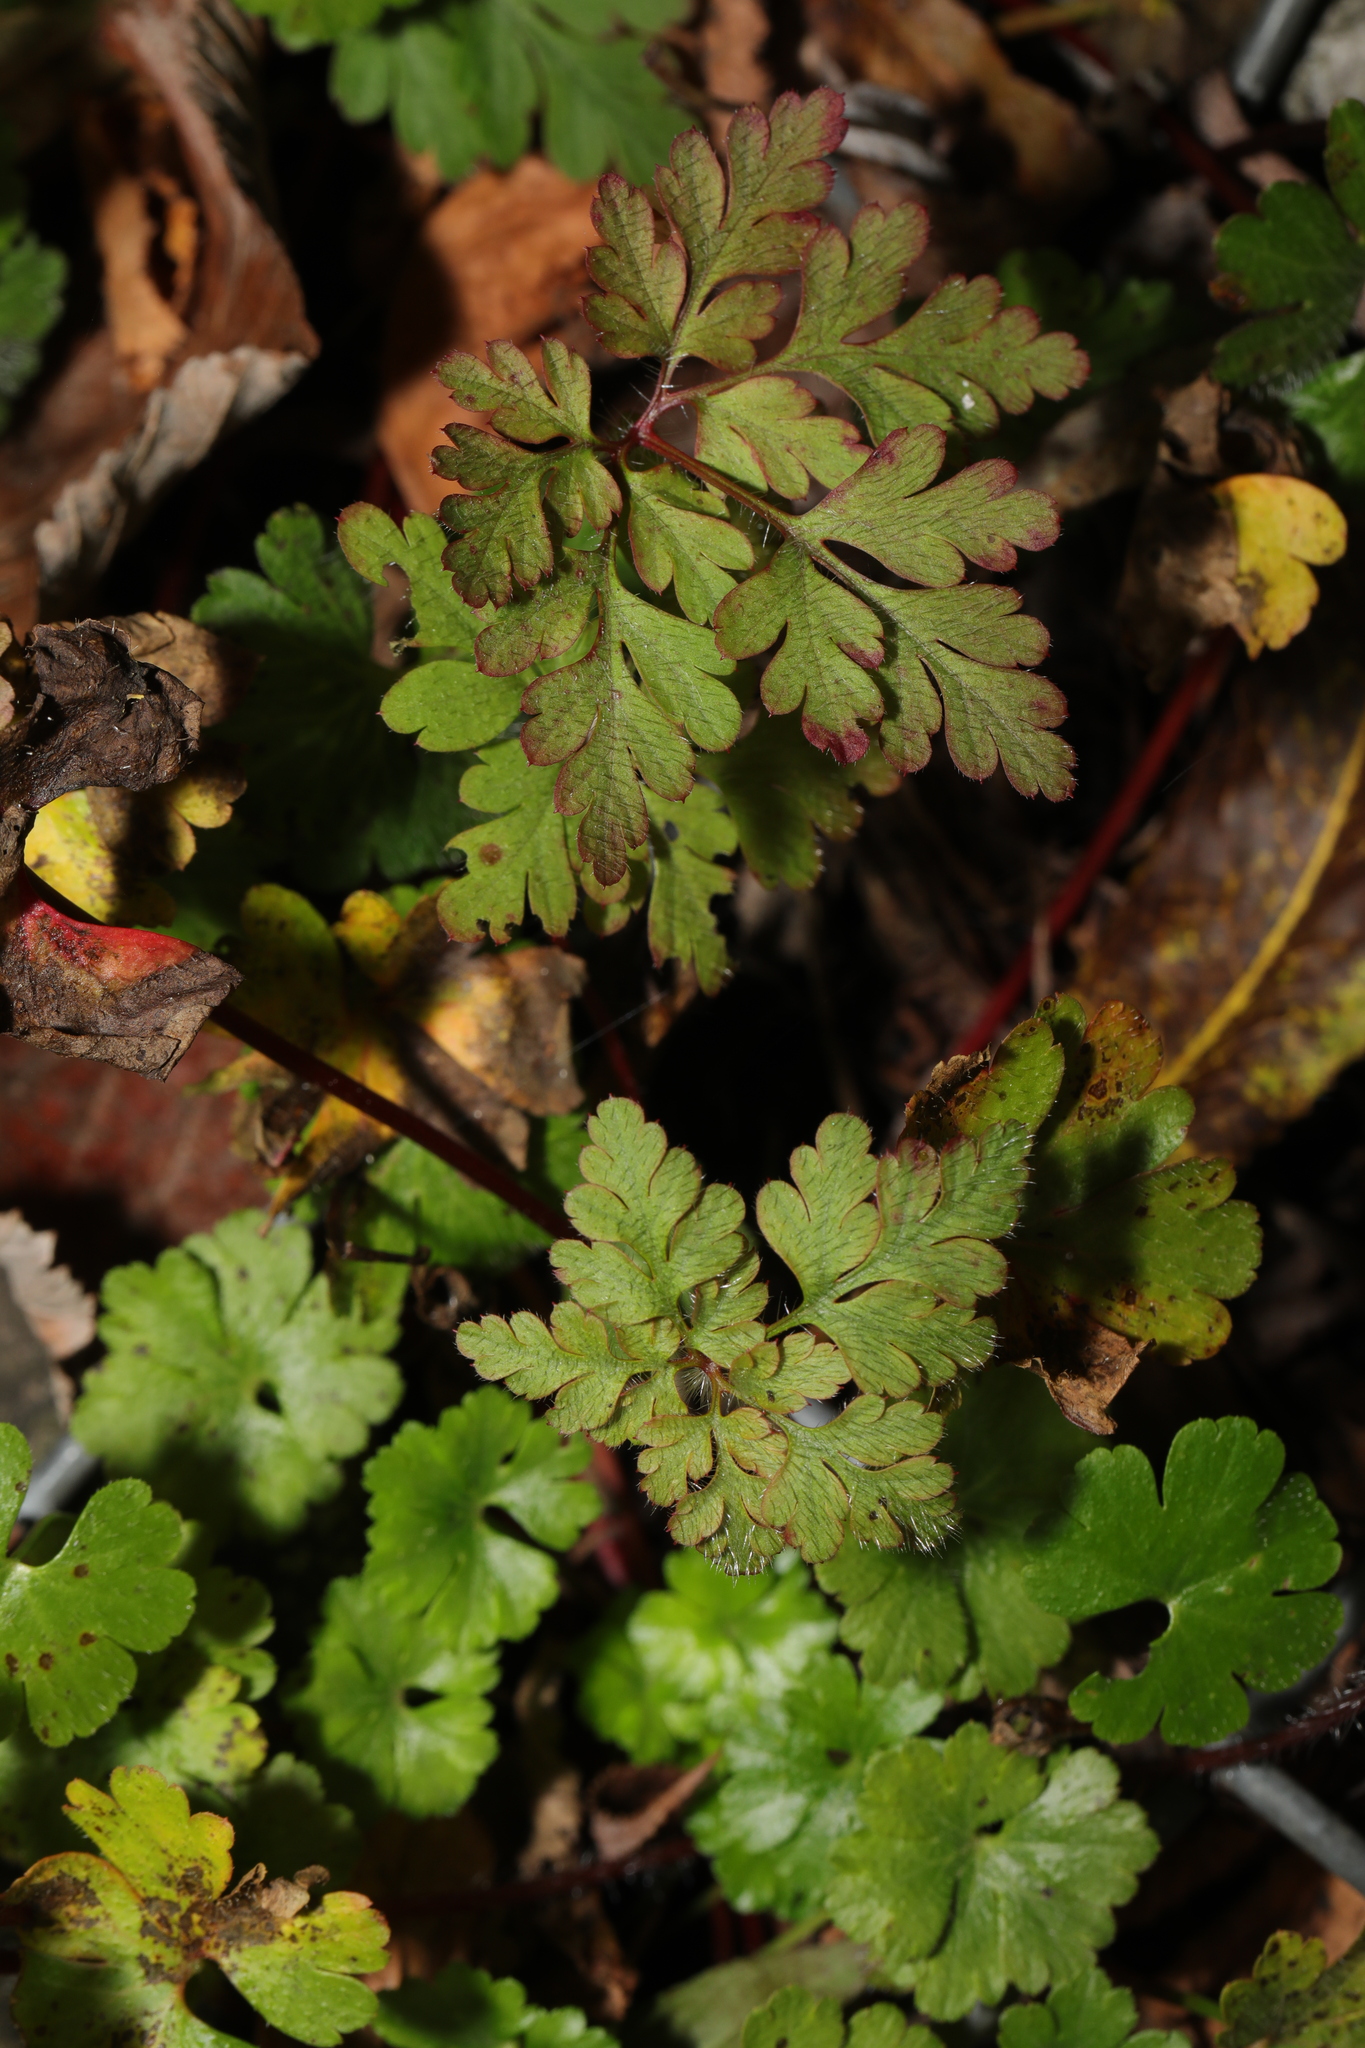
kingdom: Plantae
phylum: Tracheophyta
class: Magnoliopsida
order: Geraniales
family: Geraniaceae
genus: Geranium
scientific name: Geranium robertianum
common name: Herb-robert
